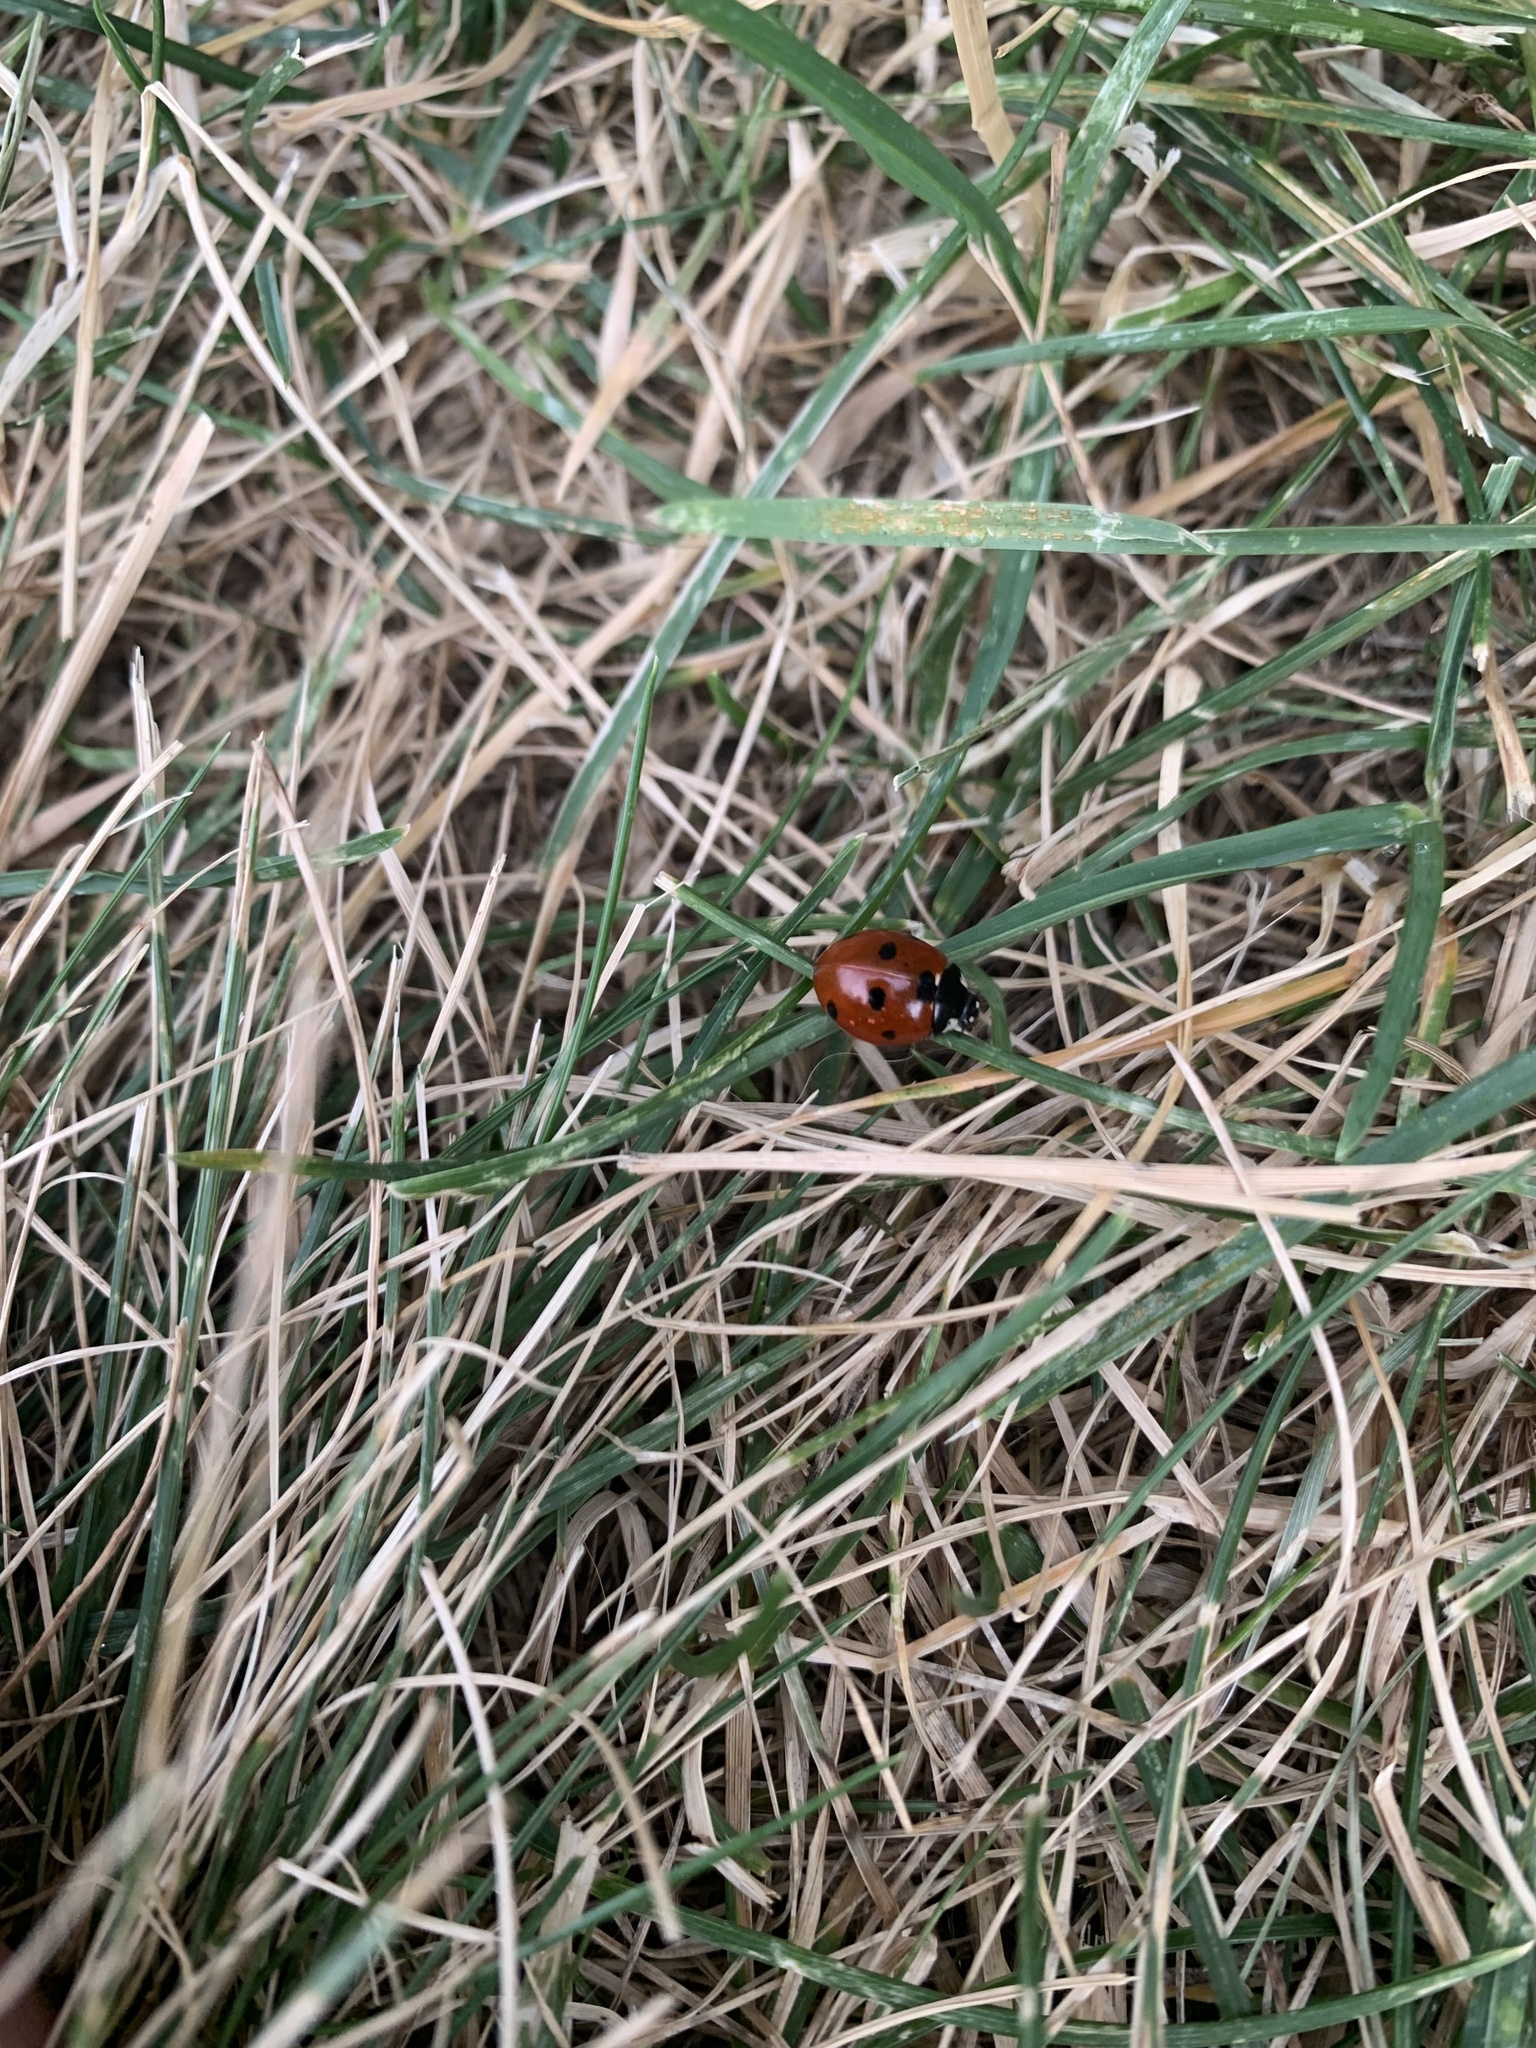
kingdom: Animalia
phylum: Arthropoda
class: Insecta
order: Coleoptera
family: Coccinellidae
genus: Coccinella
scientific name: Coccinella septempunctata
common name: Sevenspotted lady beetle
